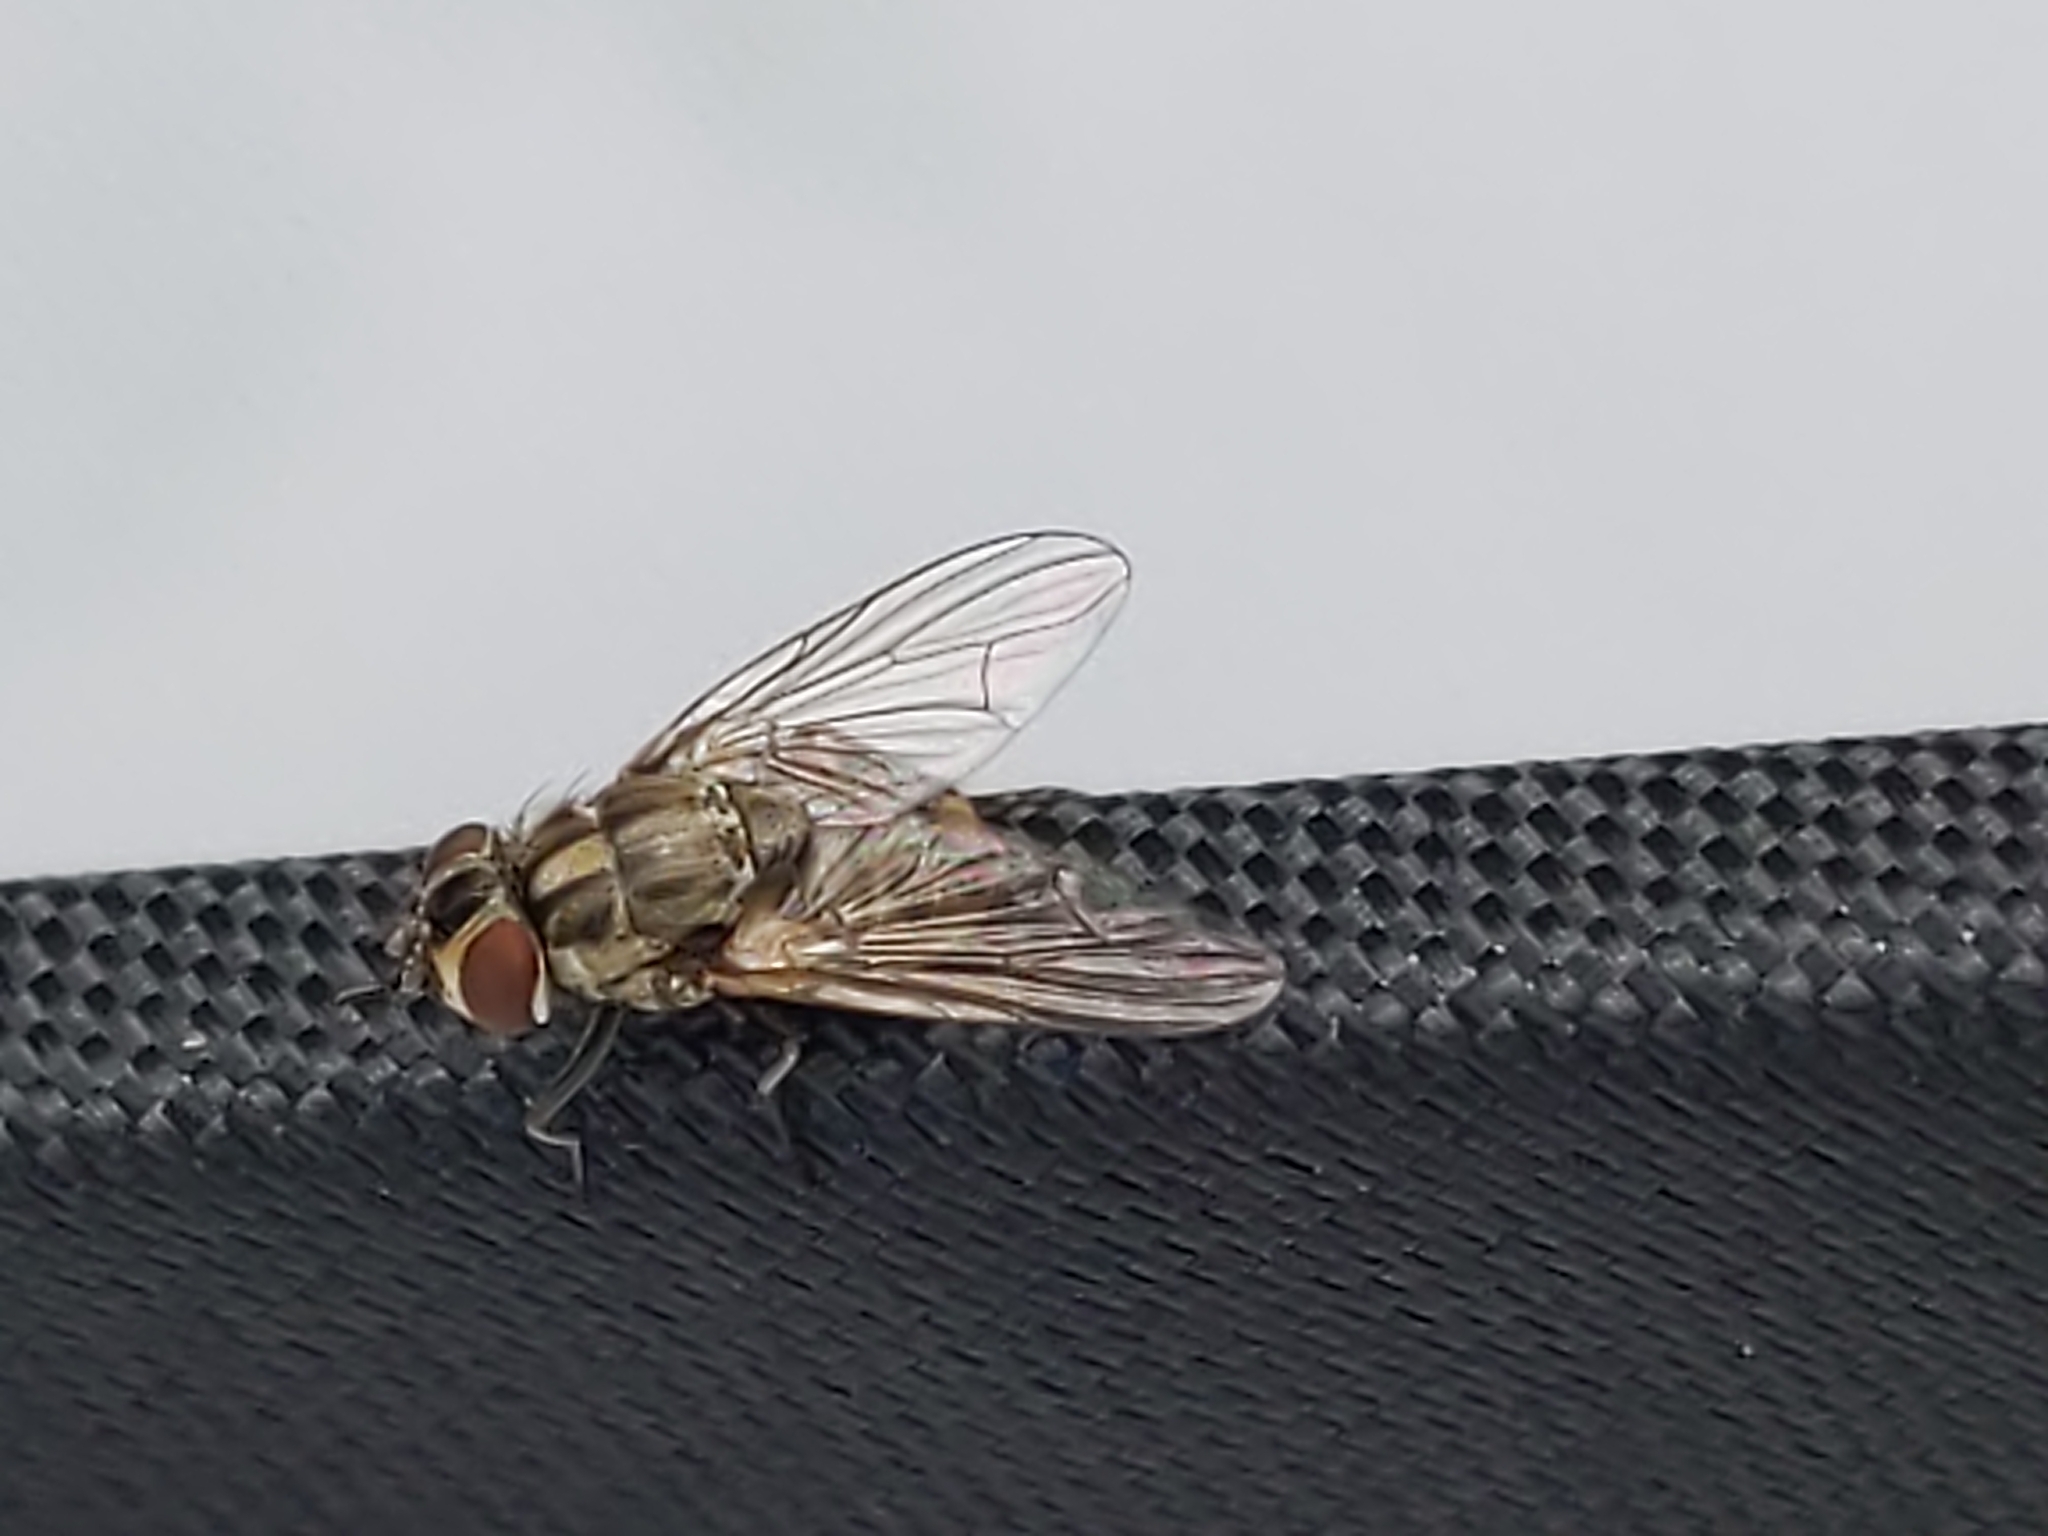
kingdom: Animalia
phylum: Arthropoda
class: Insecta
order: Diptera
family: Muscidae
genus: Stomoxys
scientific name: Stomoxys calcitrans
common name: Stable fly
